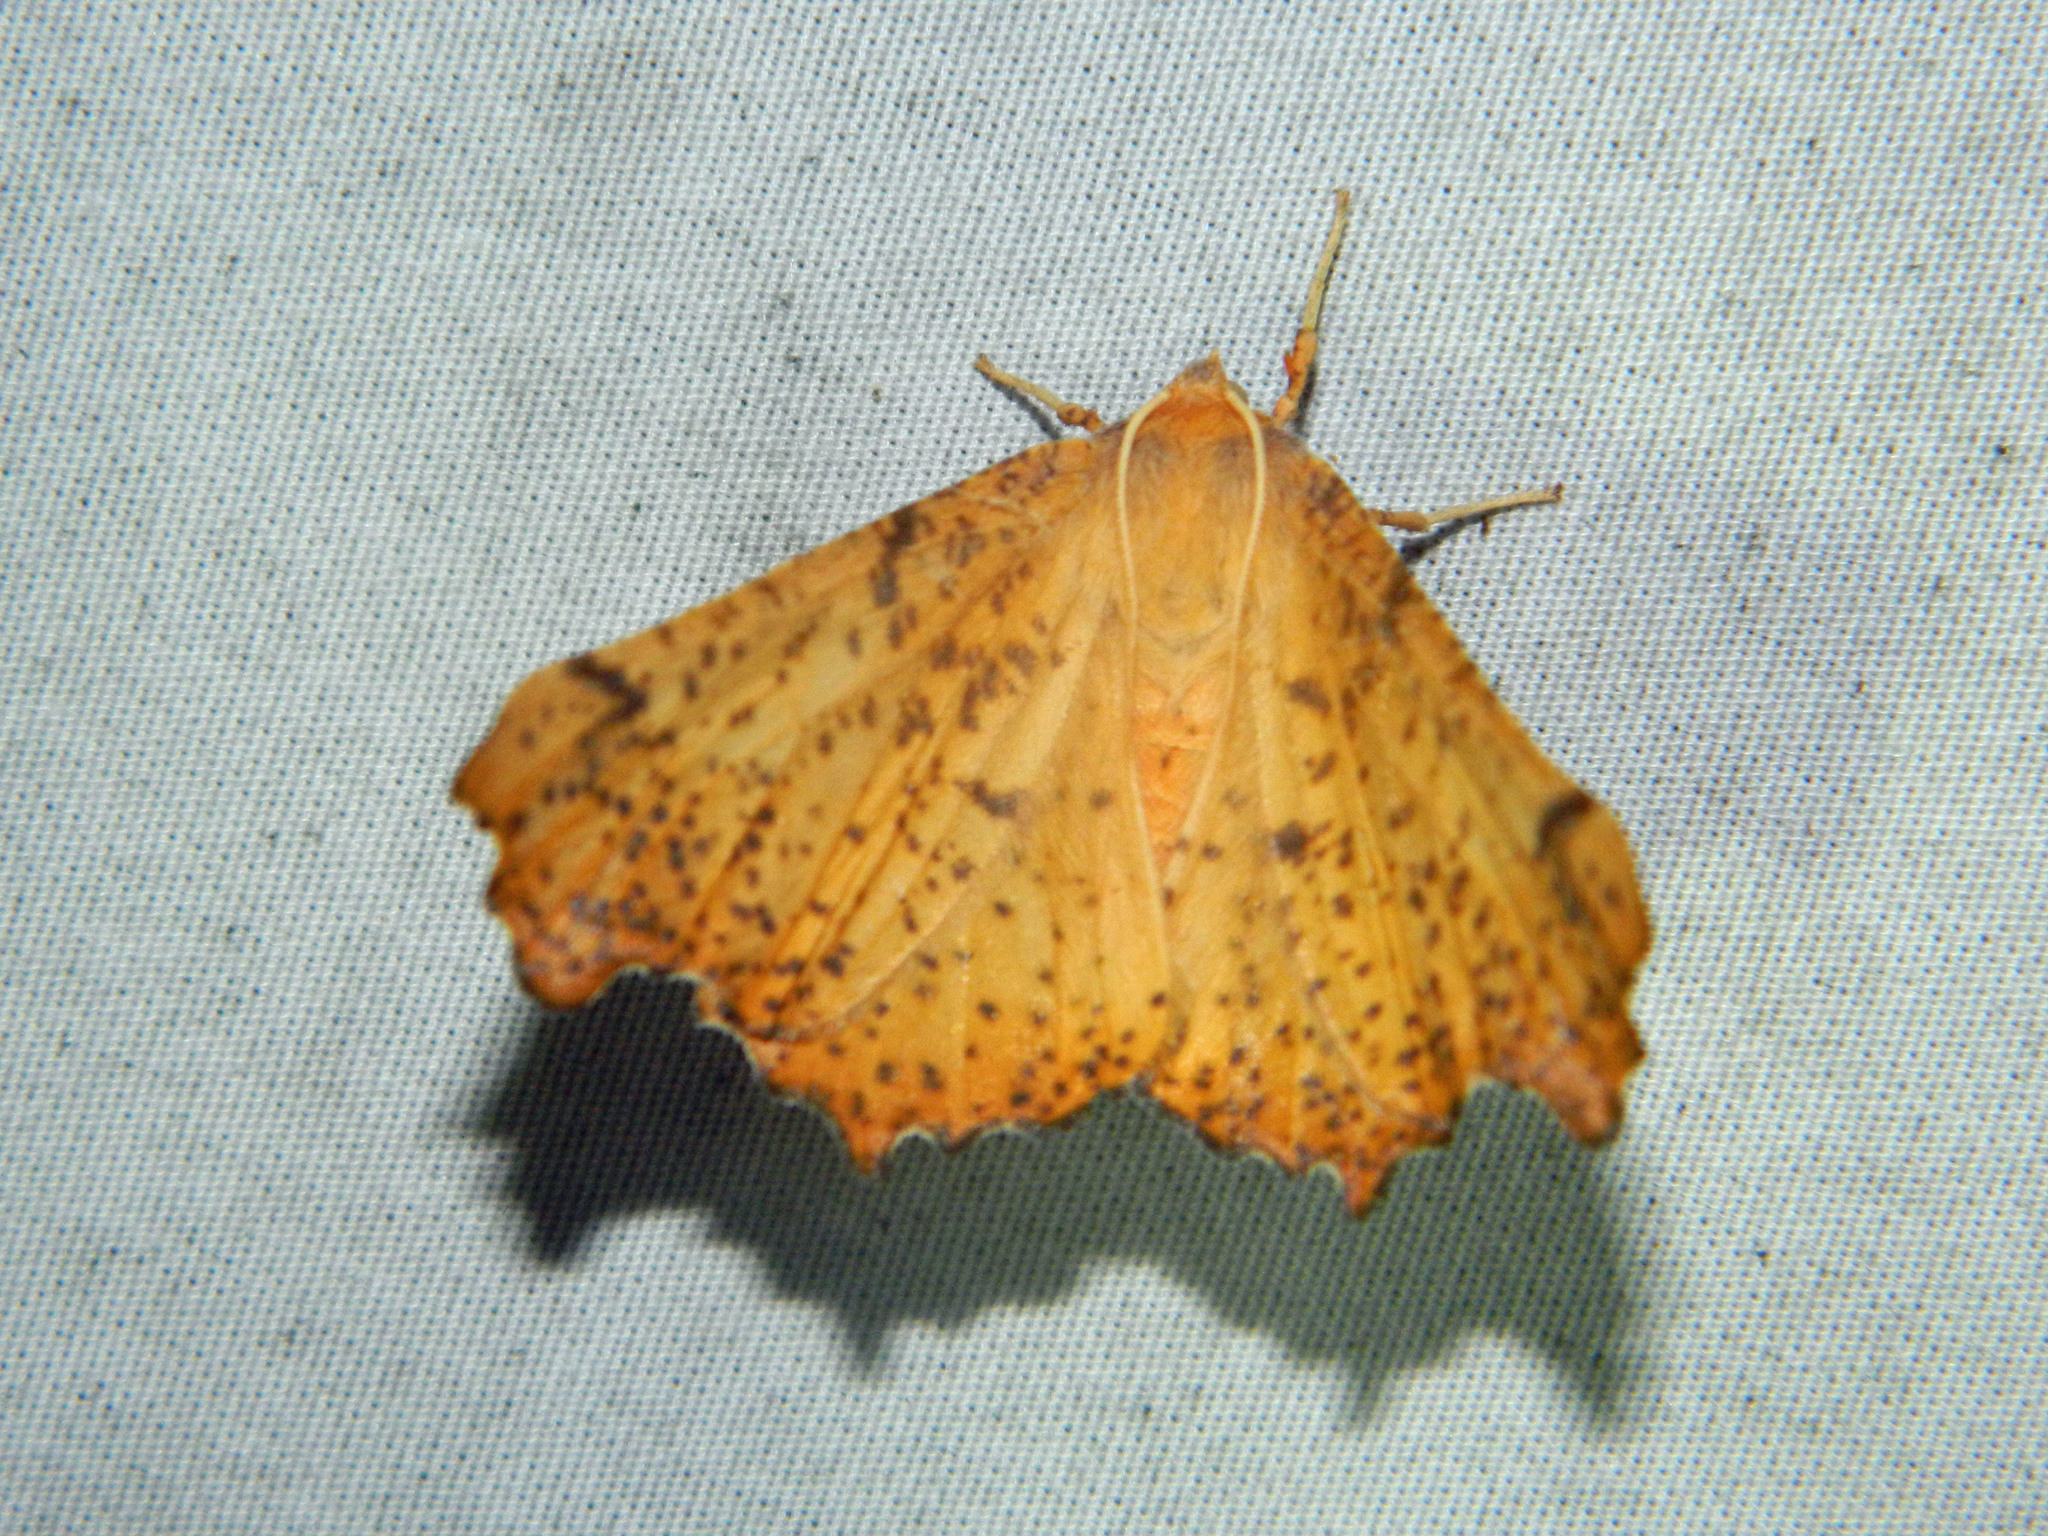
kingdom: Animalia
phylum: Arthropoda
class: Insecta
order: Lepidoptera
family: Geometridae
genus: Ennomos
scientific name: Ennomos magnaria
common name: Maple spanworm
